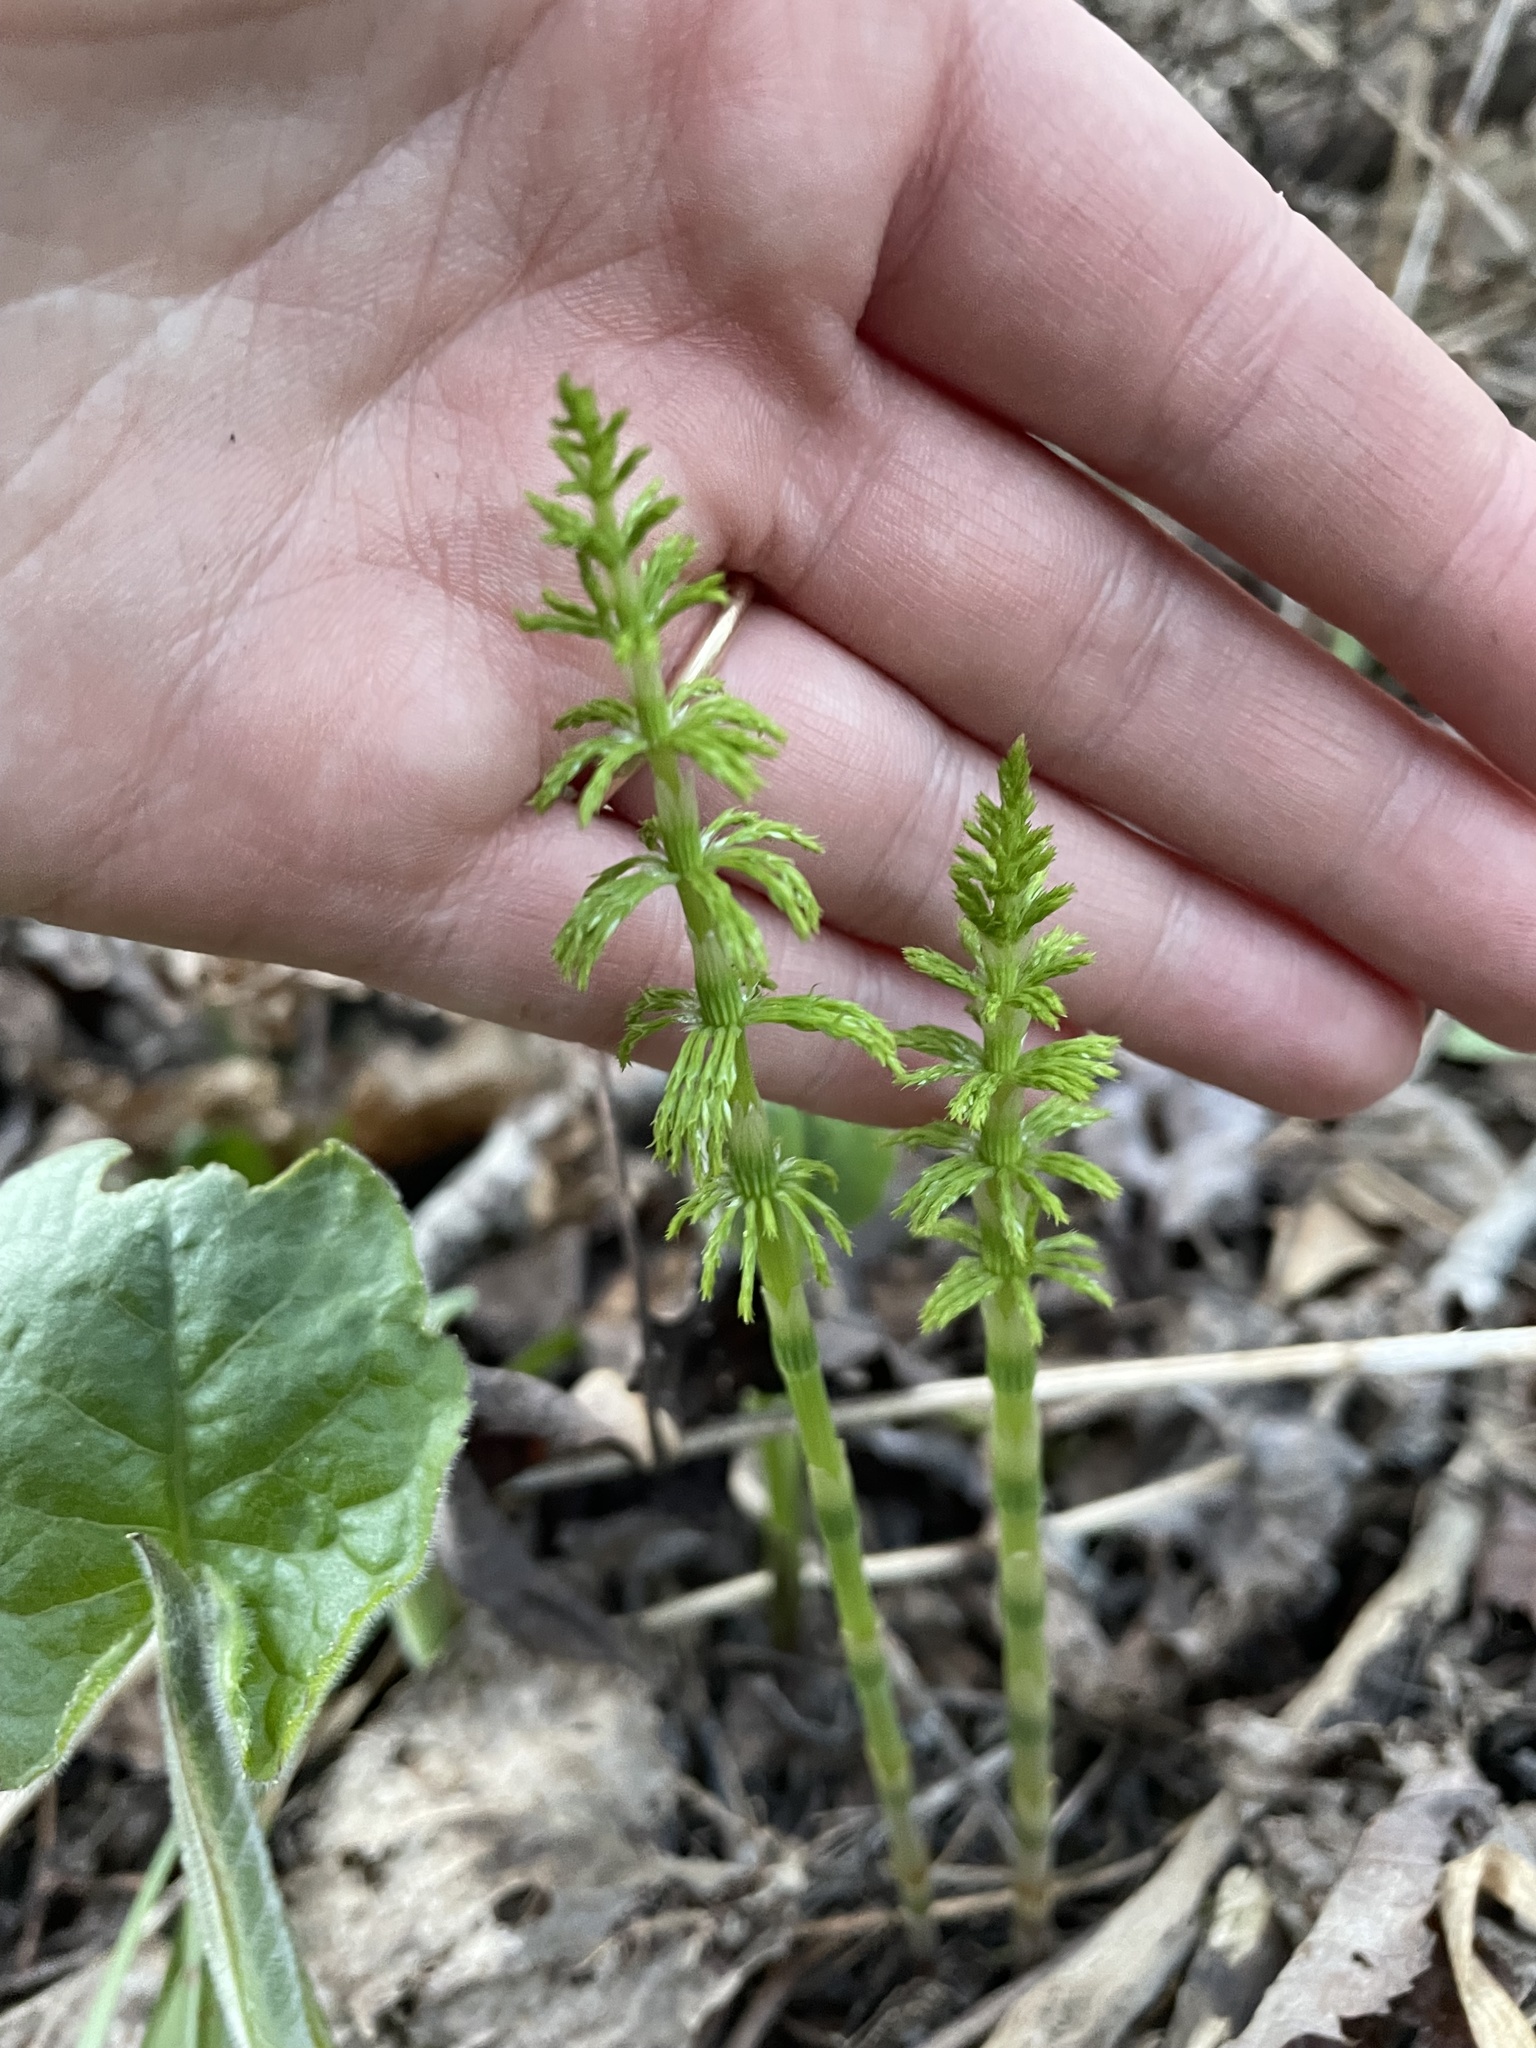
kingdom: Plantae
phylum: Tracheophyta
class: Polypodiopsida
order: Equisetales
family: Equisetaceae
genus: Equisetum
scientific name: Equisetum sylvaticum
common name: Wood horsetail
